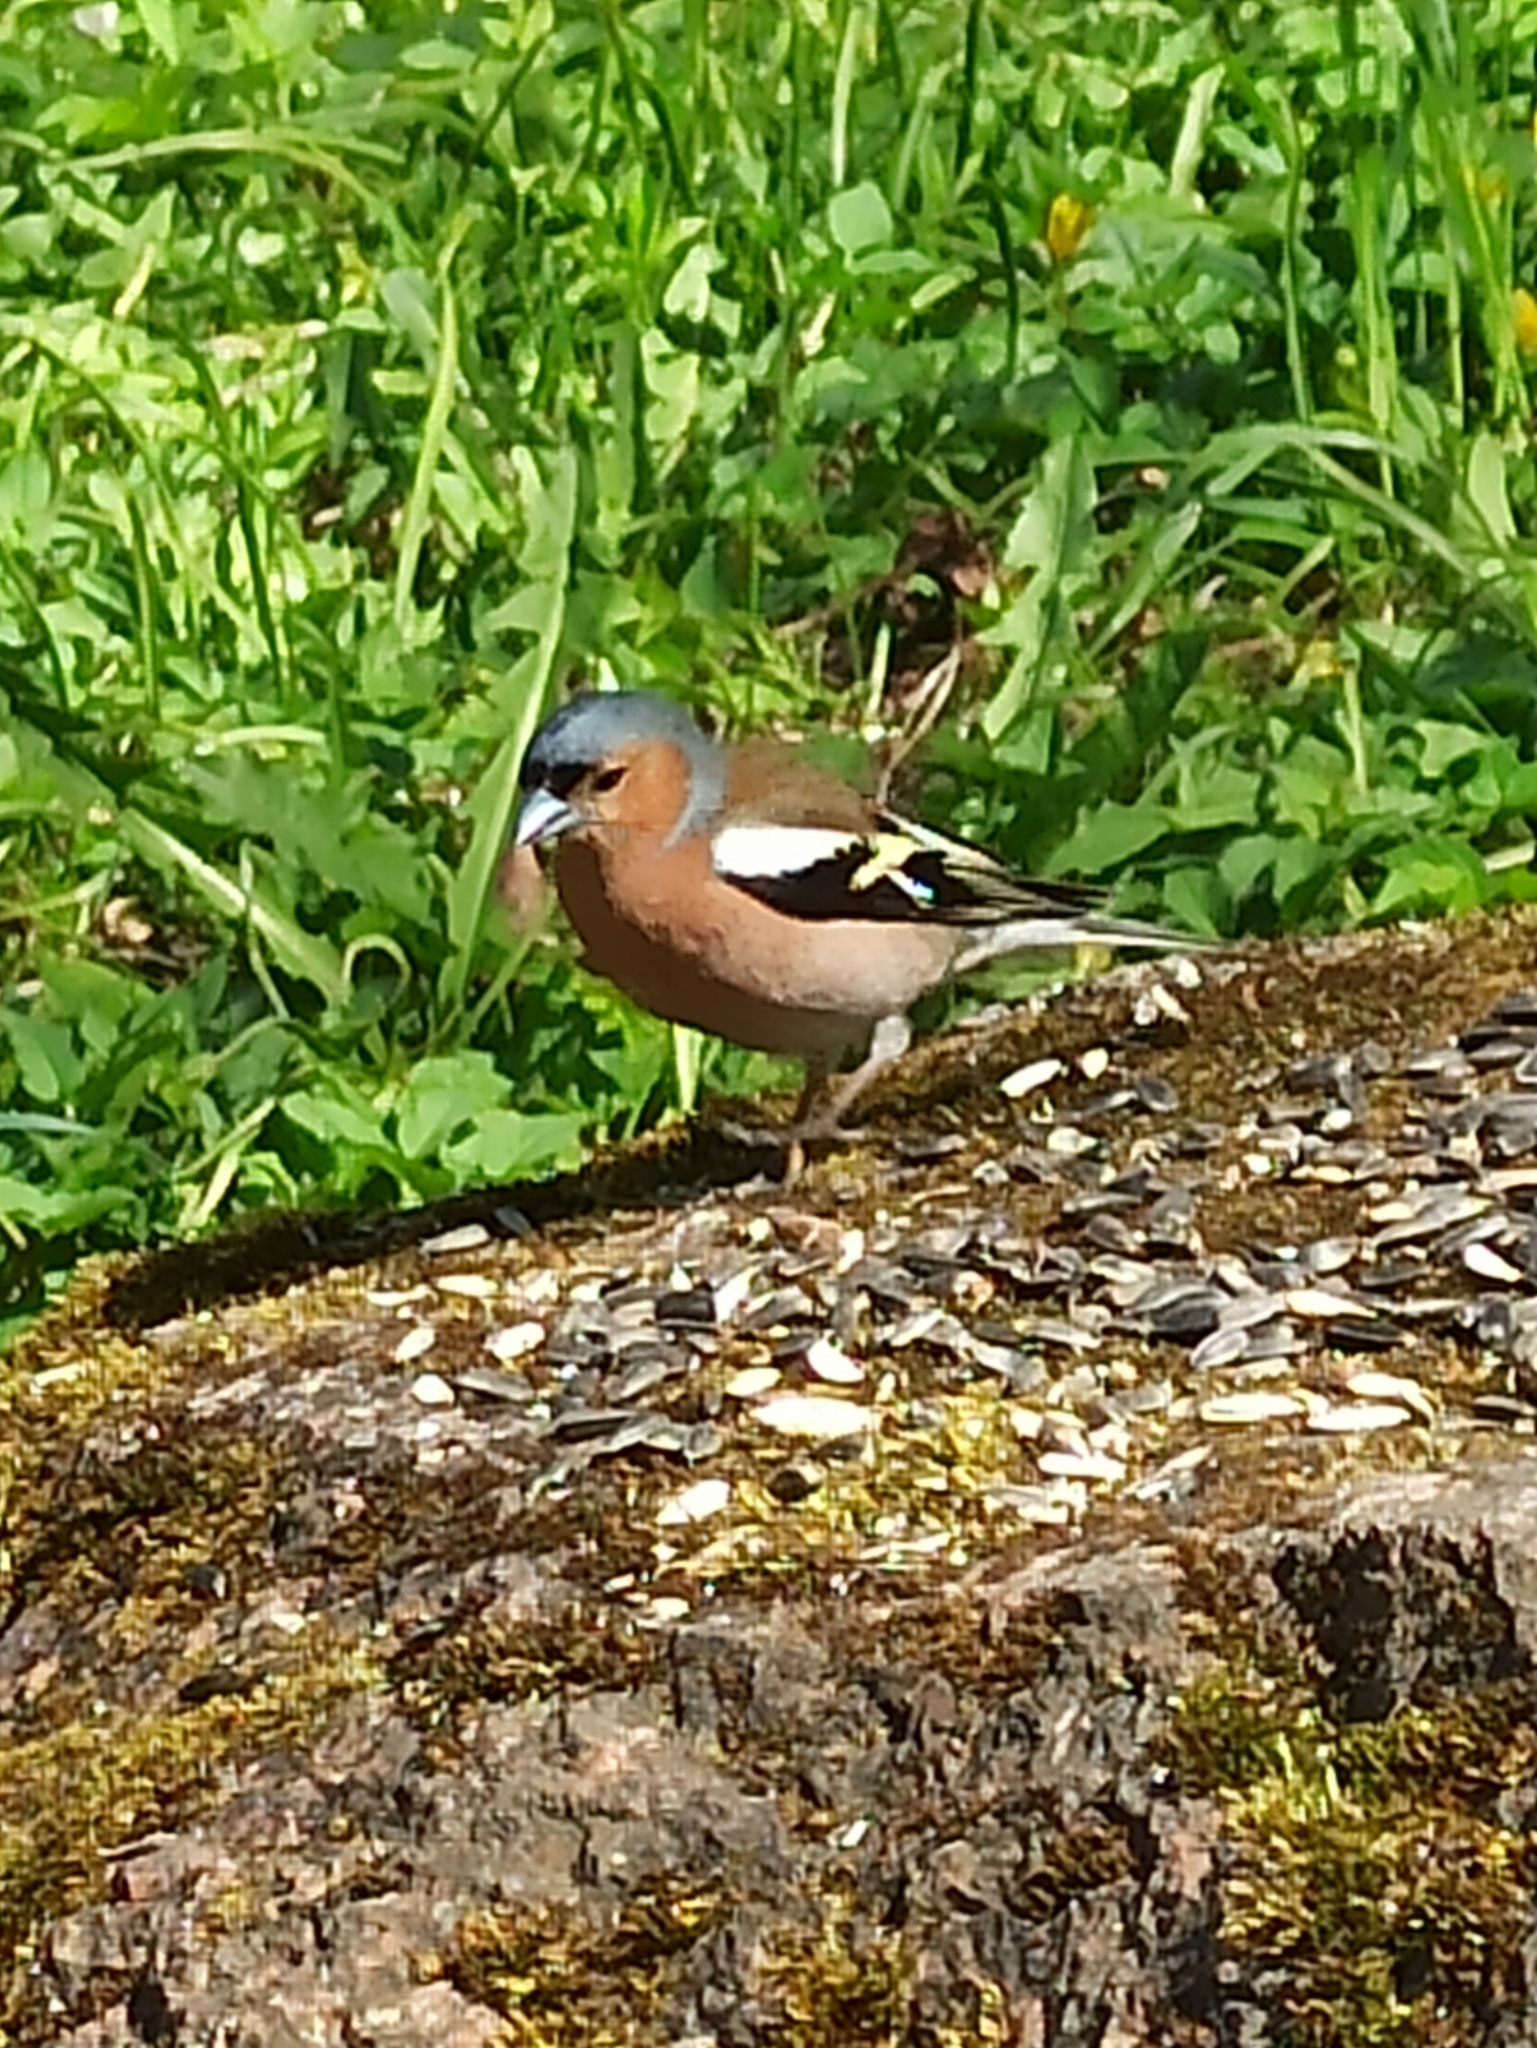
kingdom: Animalia
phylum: Chordata
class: Aves
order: Passeriformes
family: Fringillidae
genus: Fringilla
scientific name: Fringilla coelebs
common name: Common chaffinch
